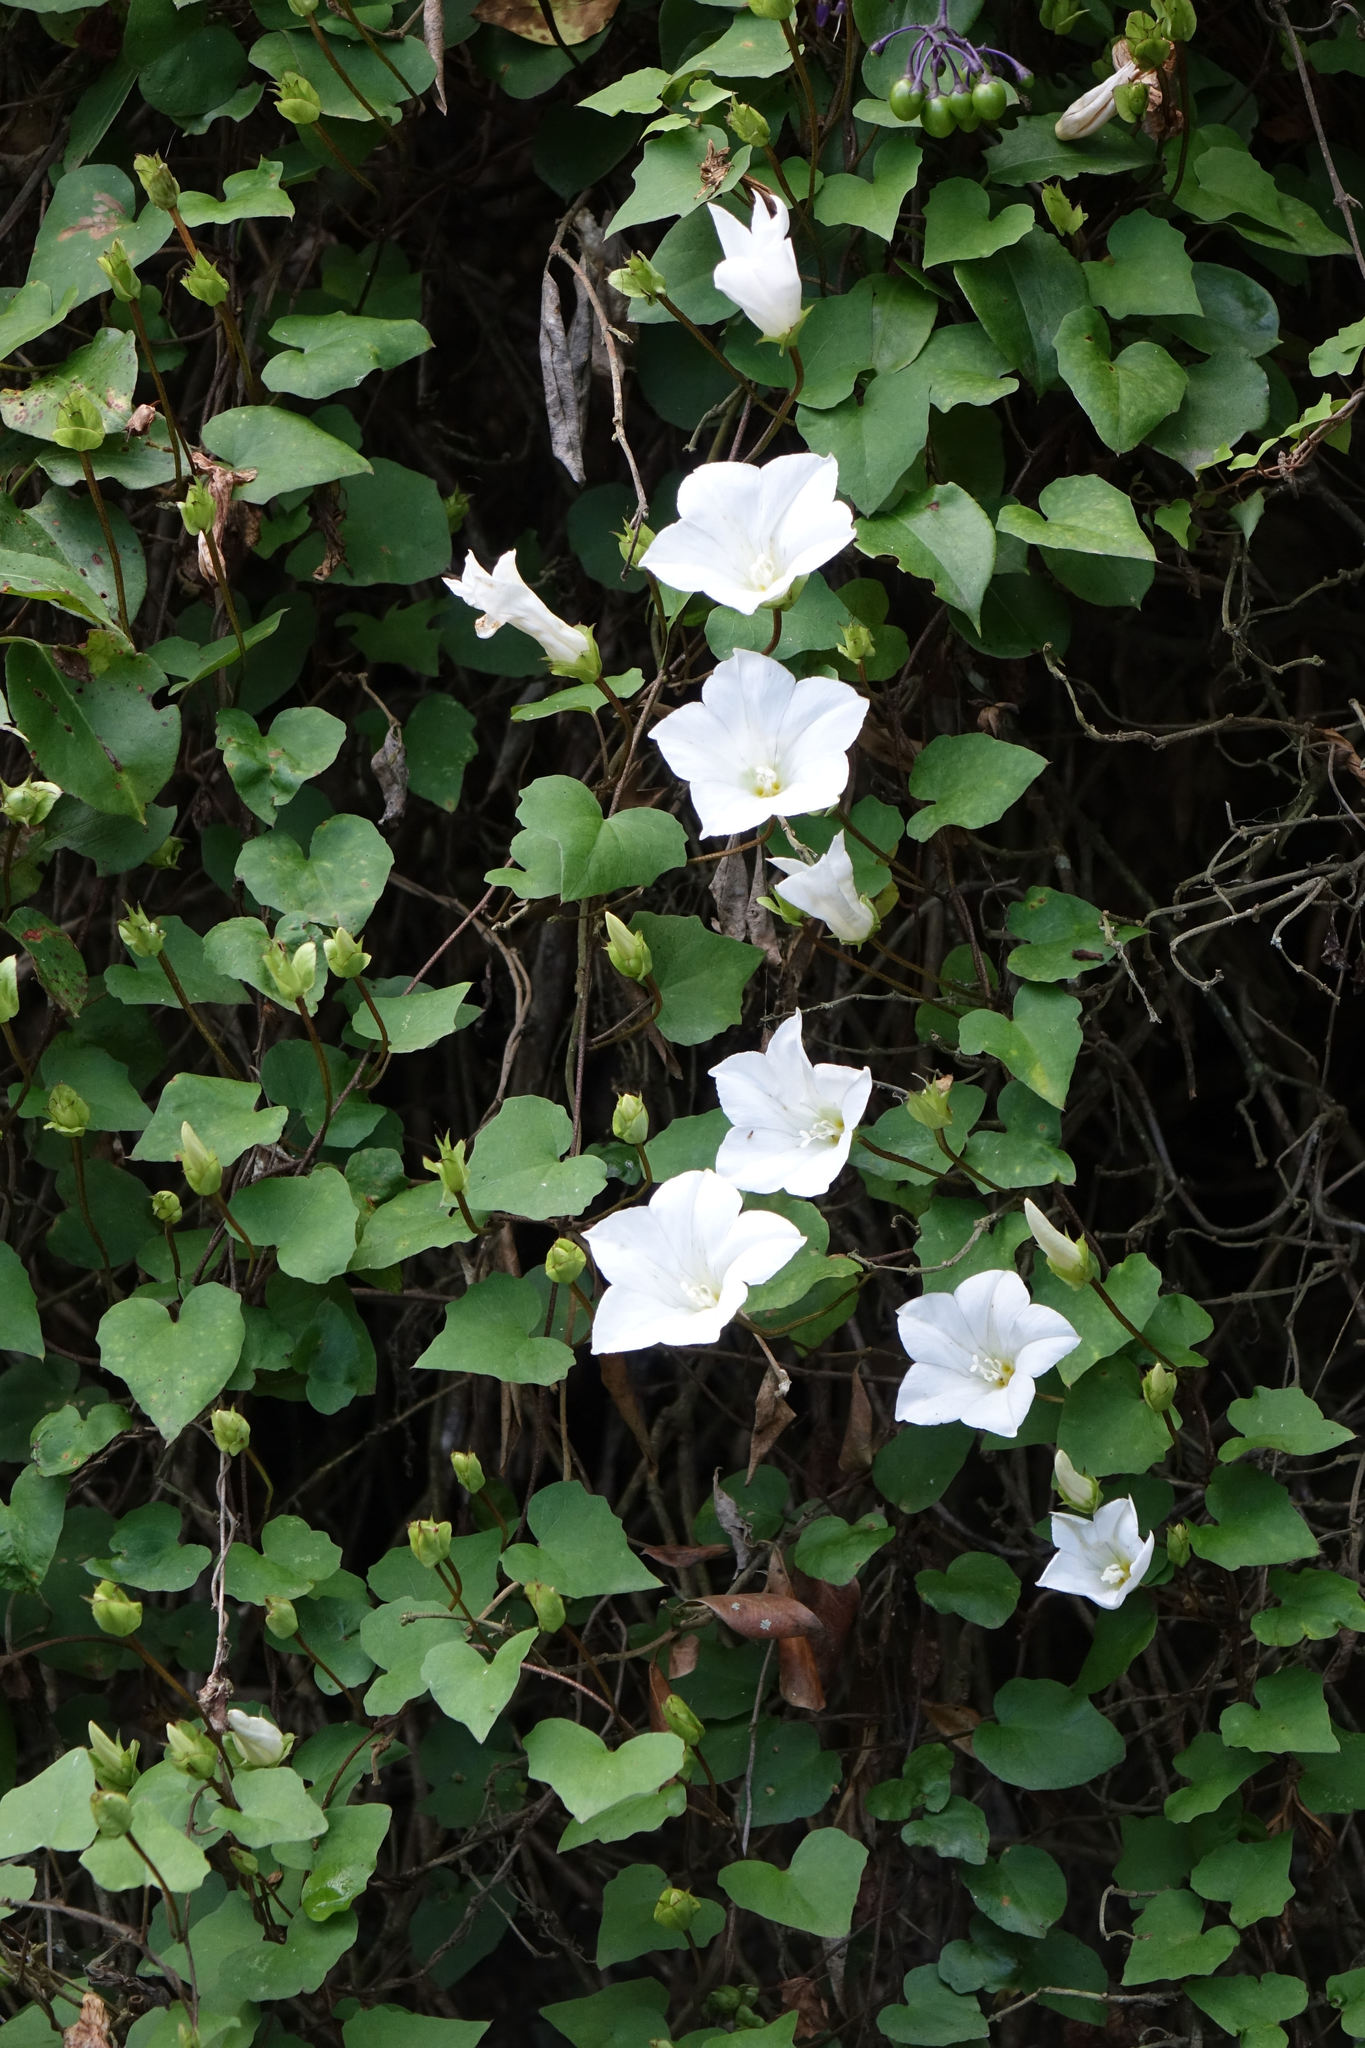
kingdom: Plantae
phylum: Tracheophyta
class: Magnoliopsida
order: Solanales
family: Convolvulaceae
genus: Calystegia
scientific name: Calystegia tuguriorum
